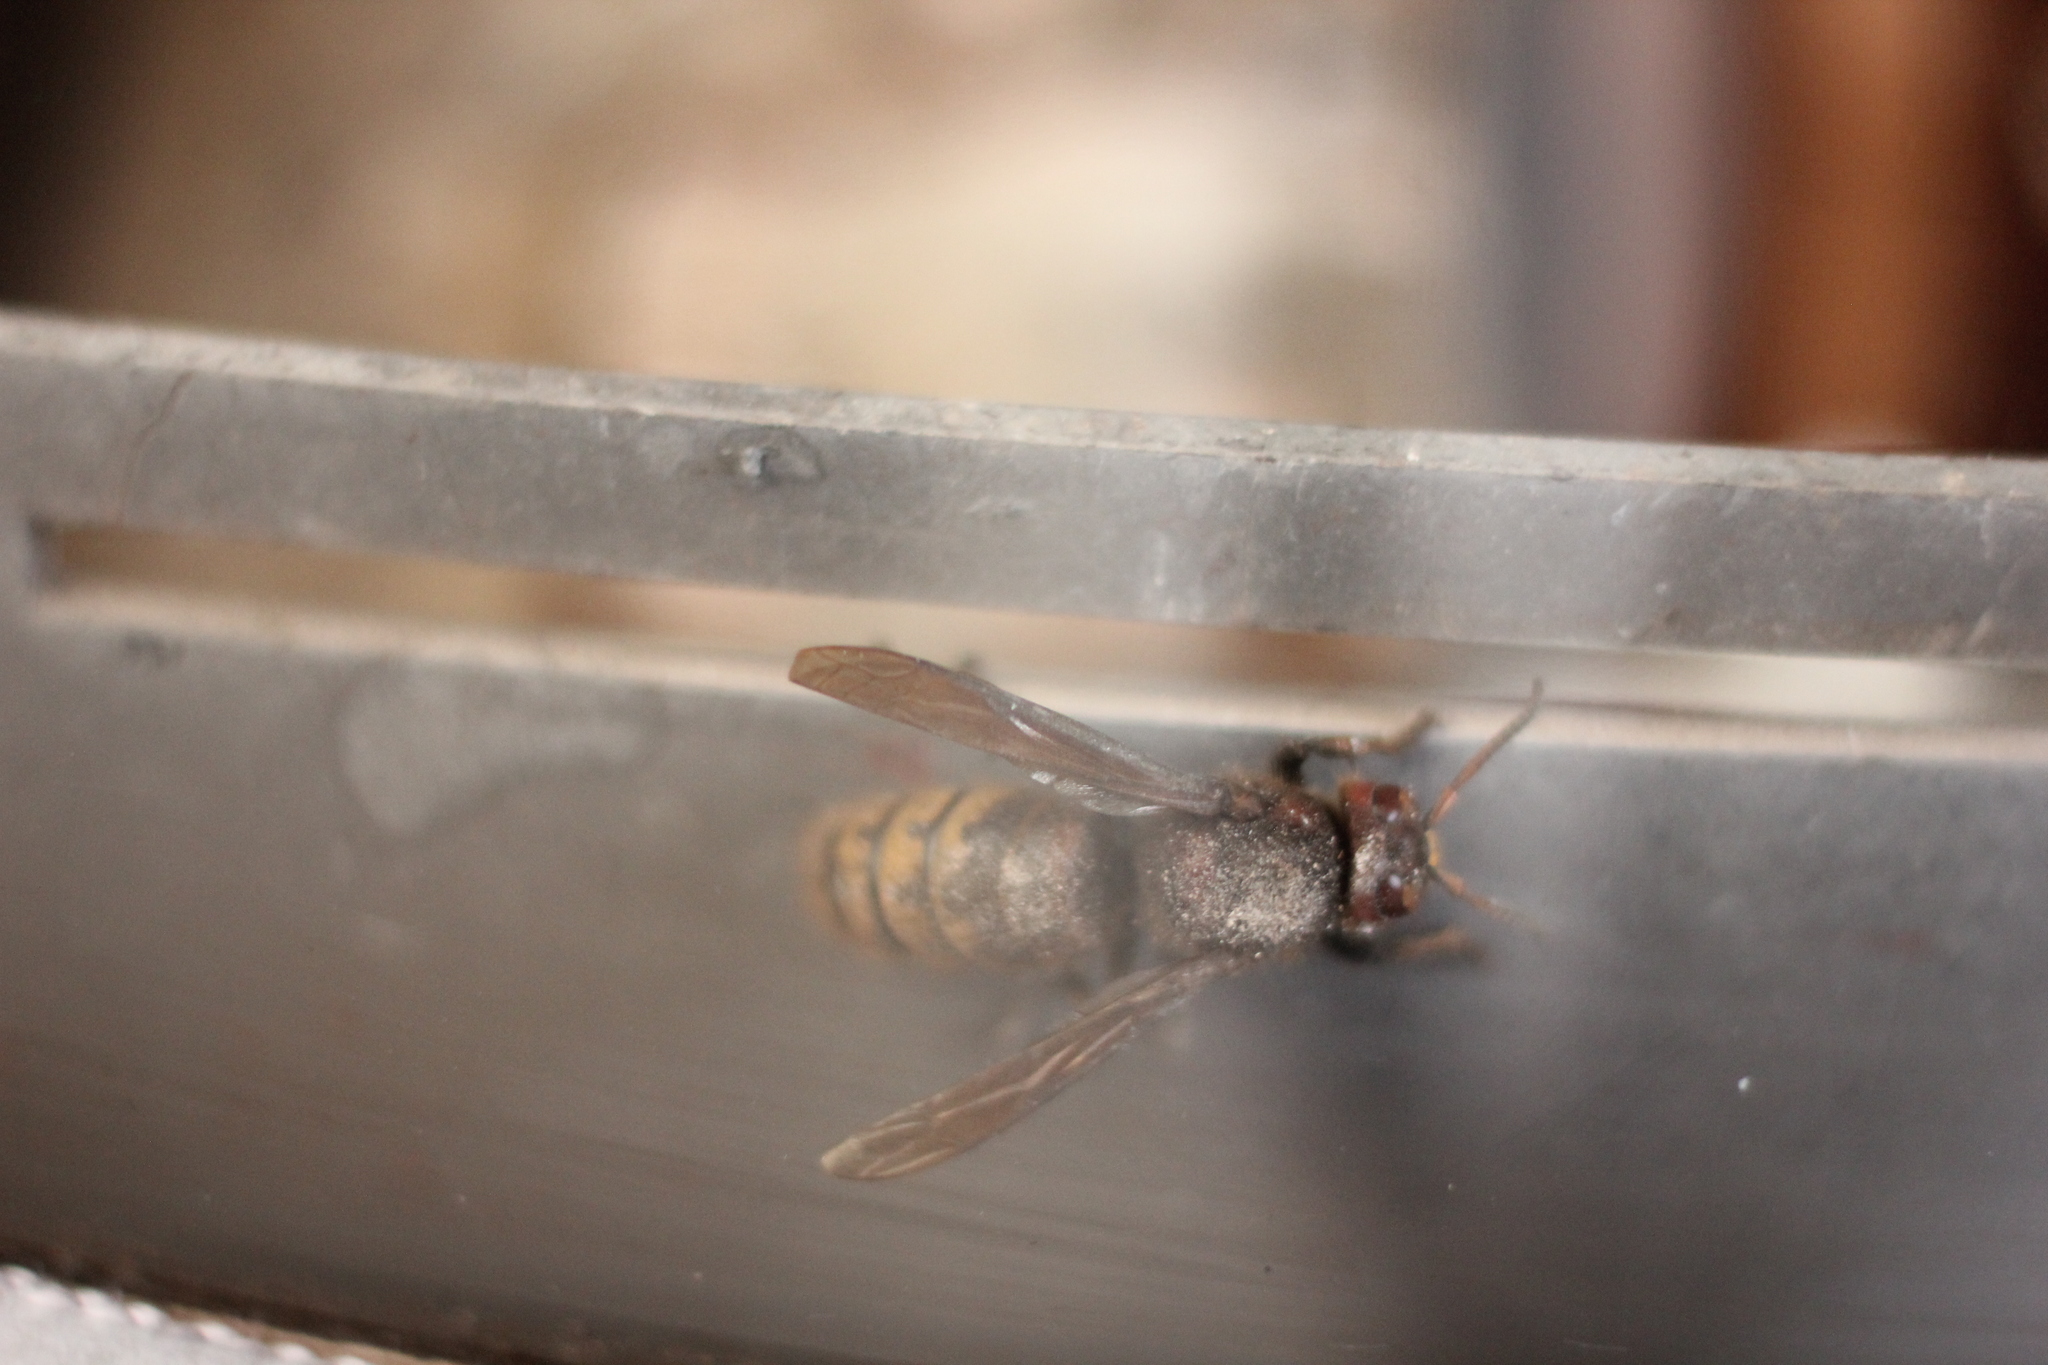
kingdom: Animalia
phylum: Arthropoda
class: Insecta
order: Hymenoptera
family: Vespidae
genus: Vespa
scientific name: Vespa crabro
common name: Hornet
